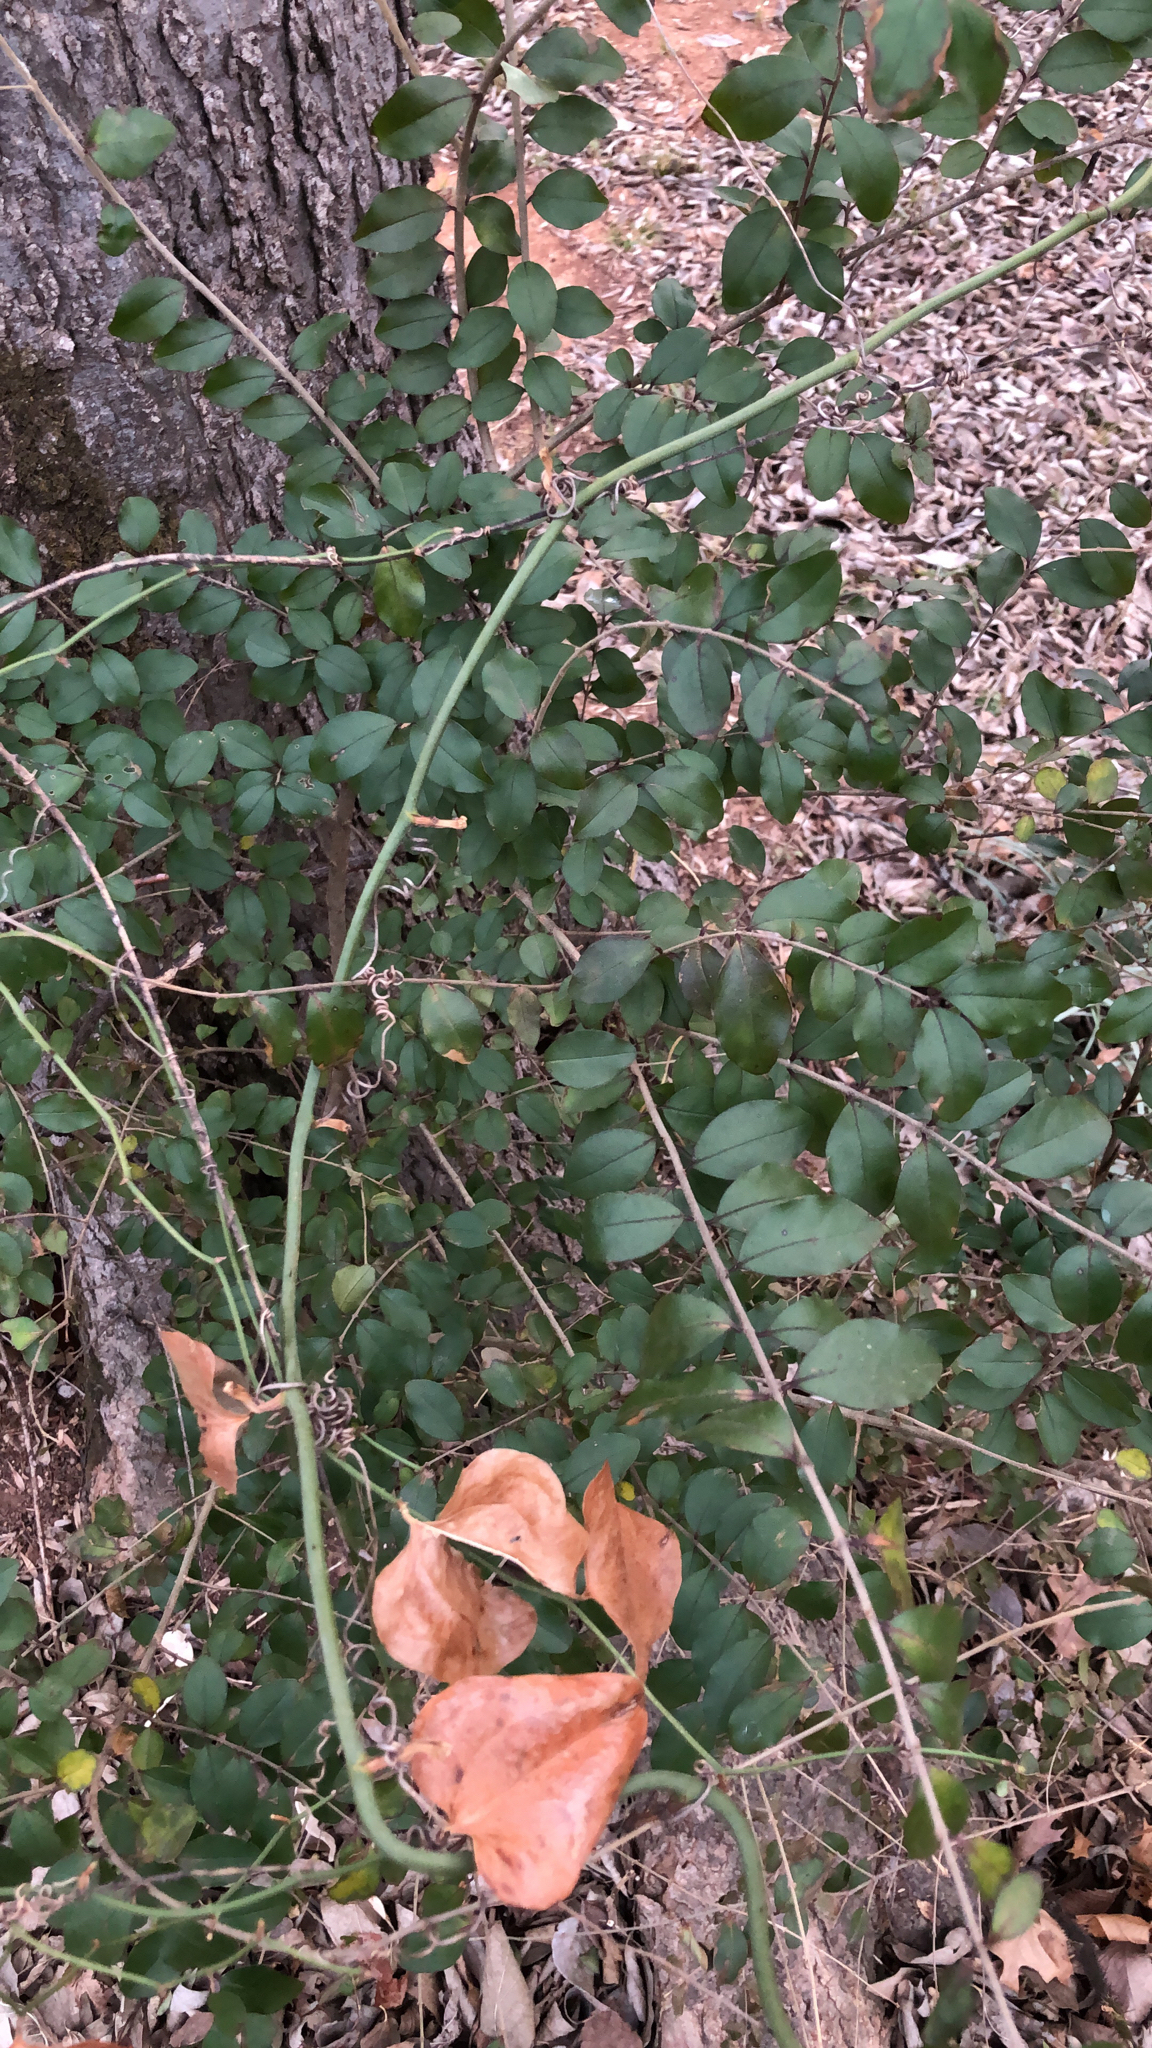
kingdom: Plantae
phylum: Tracheophyta
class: Magnoliopsida
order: Lamiales
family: Oleaceae
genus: Ligustrum
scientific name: Ligustrum sinense
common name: Chinese privet
